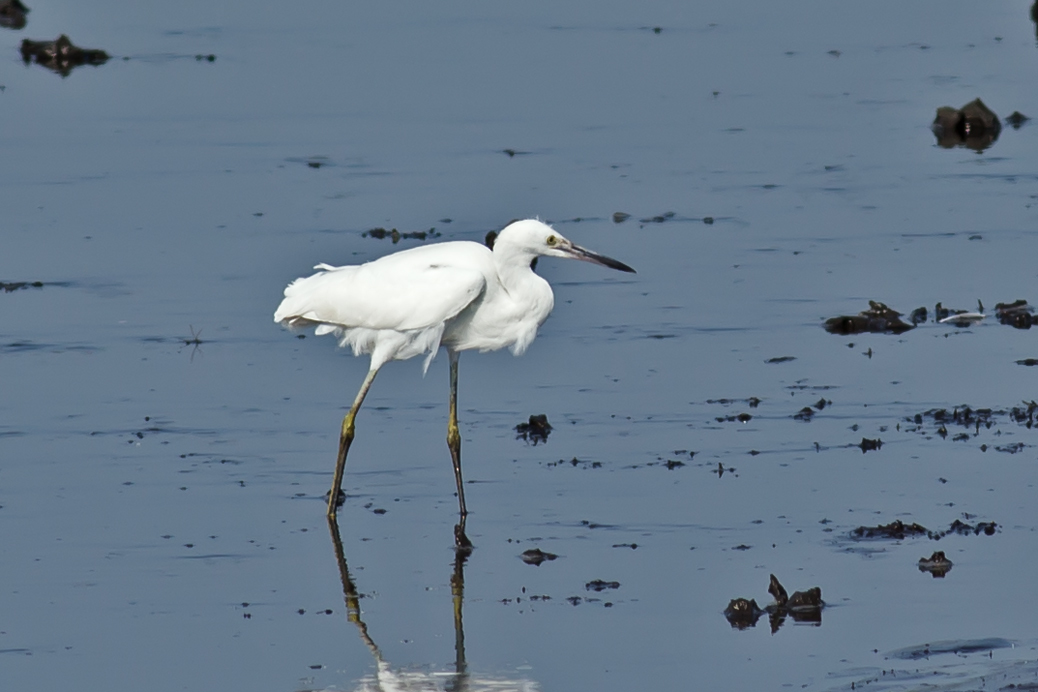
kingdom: Animalia
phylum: Chordata
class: Aves
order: Pelecaniformes
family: Ardeidae
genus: Egretta
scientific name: Egretta thula
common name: Snowy egret
